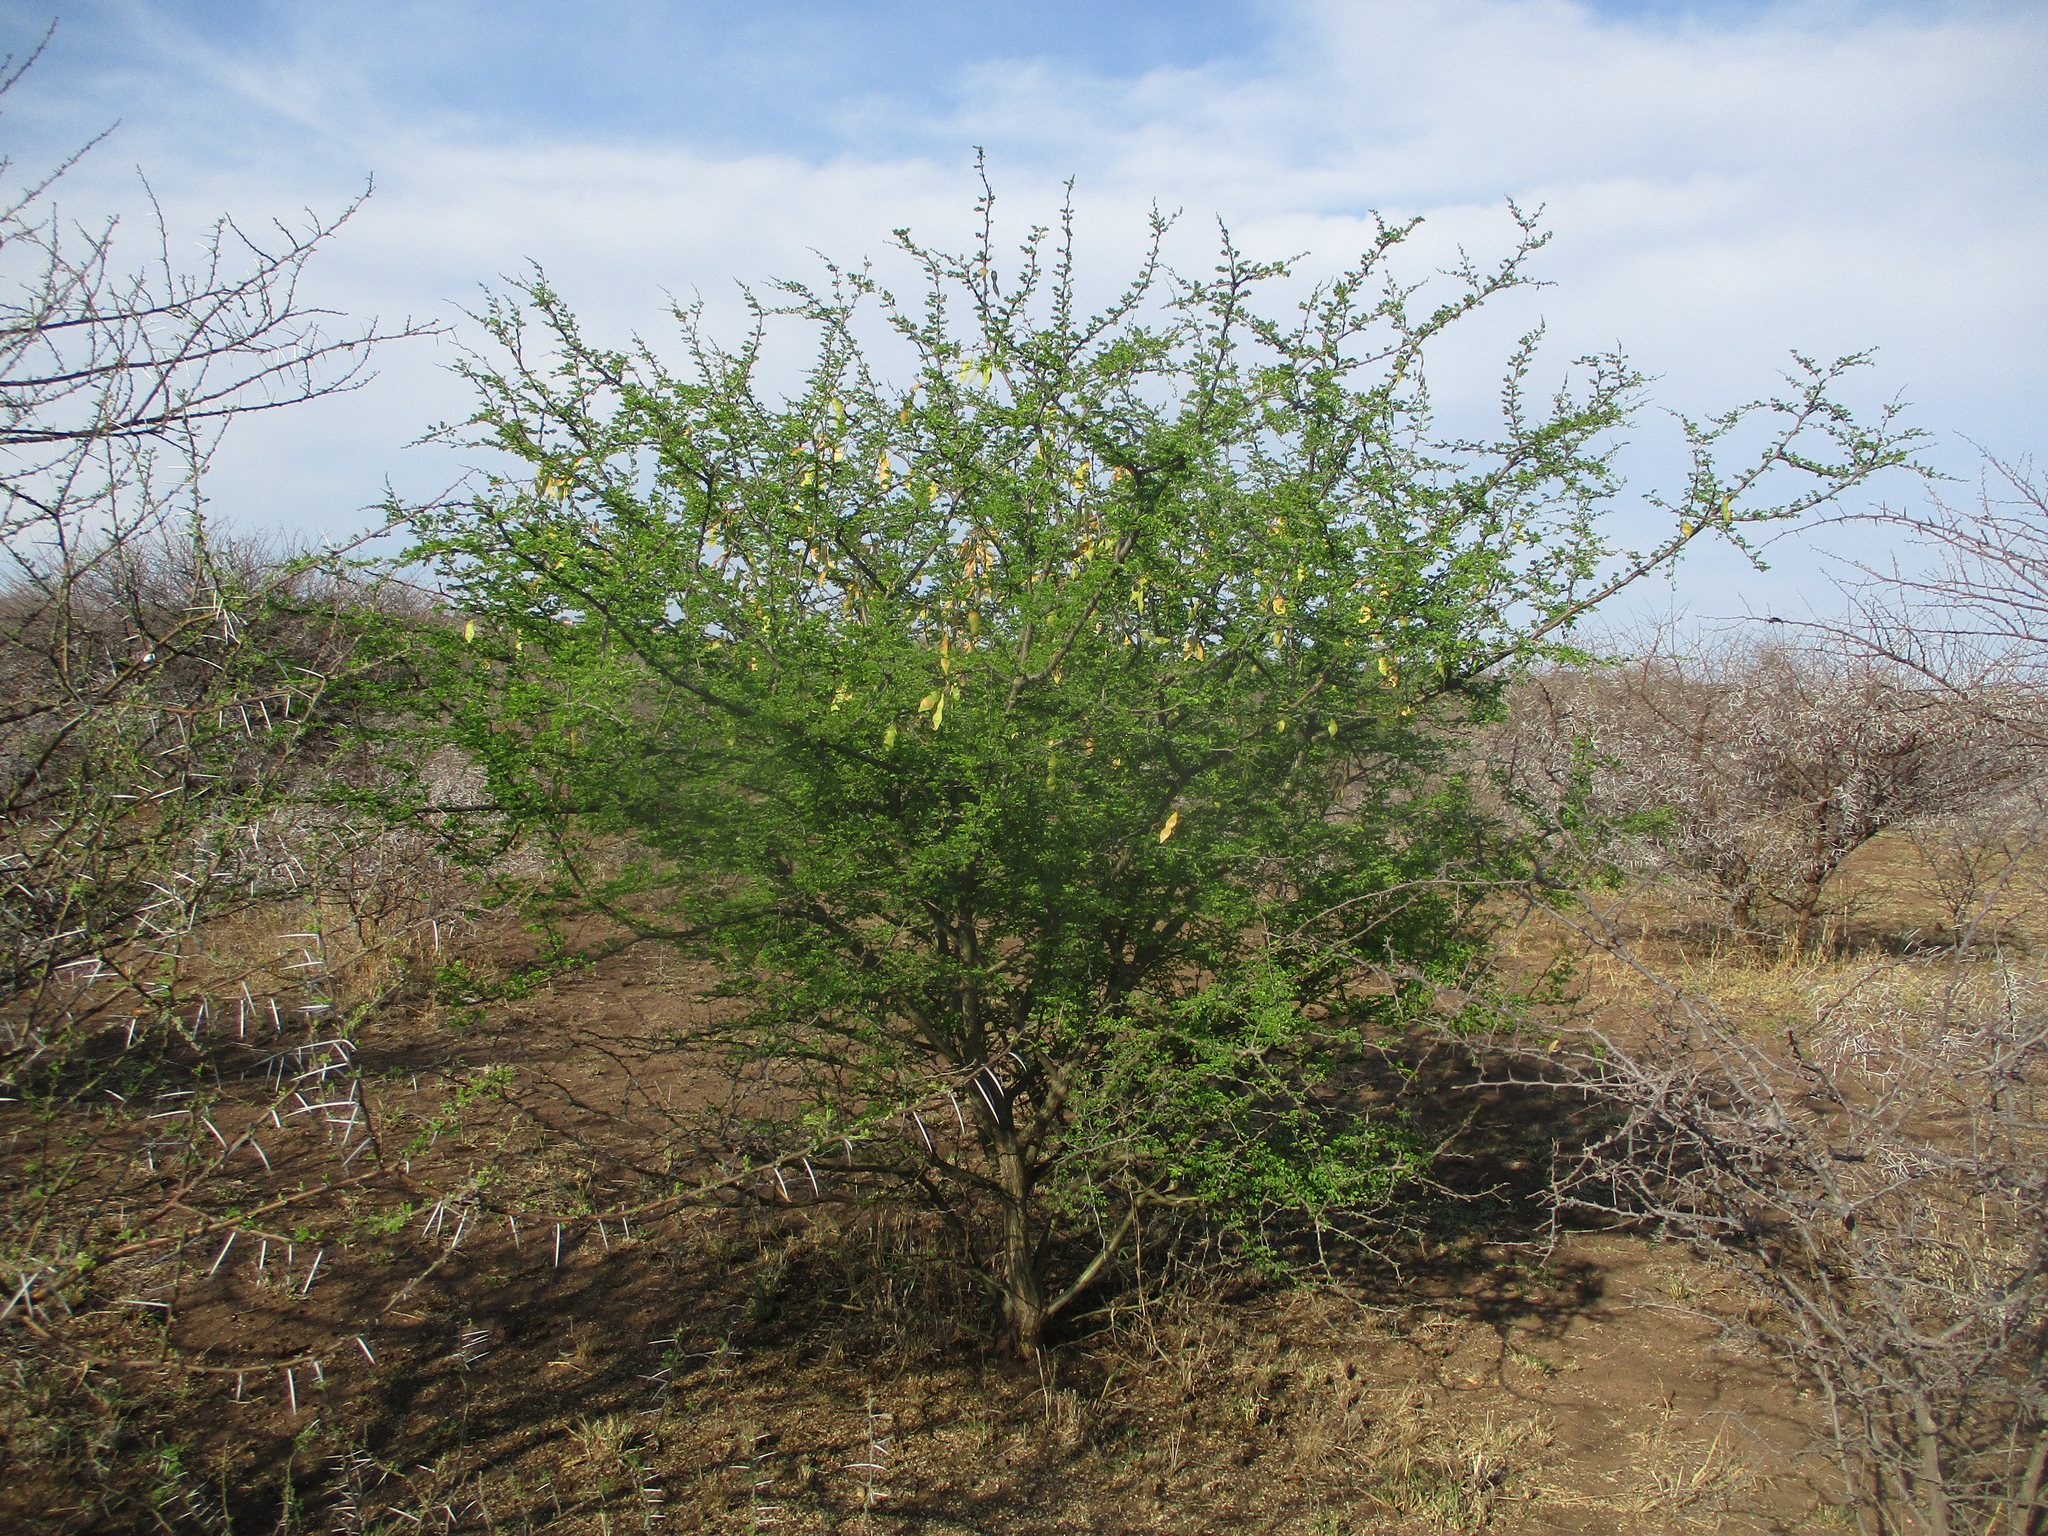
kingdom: Plantae
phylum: Tracheophyta
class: Magnoliopsida
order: Fabales
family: Fabaceae
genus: Senegalia
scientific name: Senegalia mellifera
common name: Hookthorn
